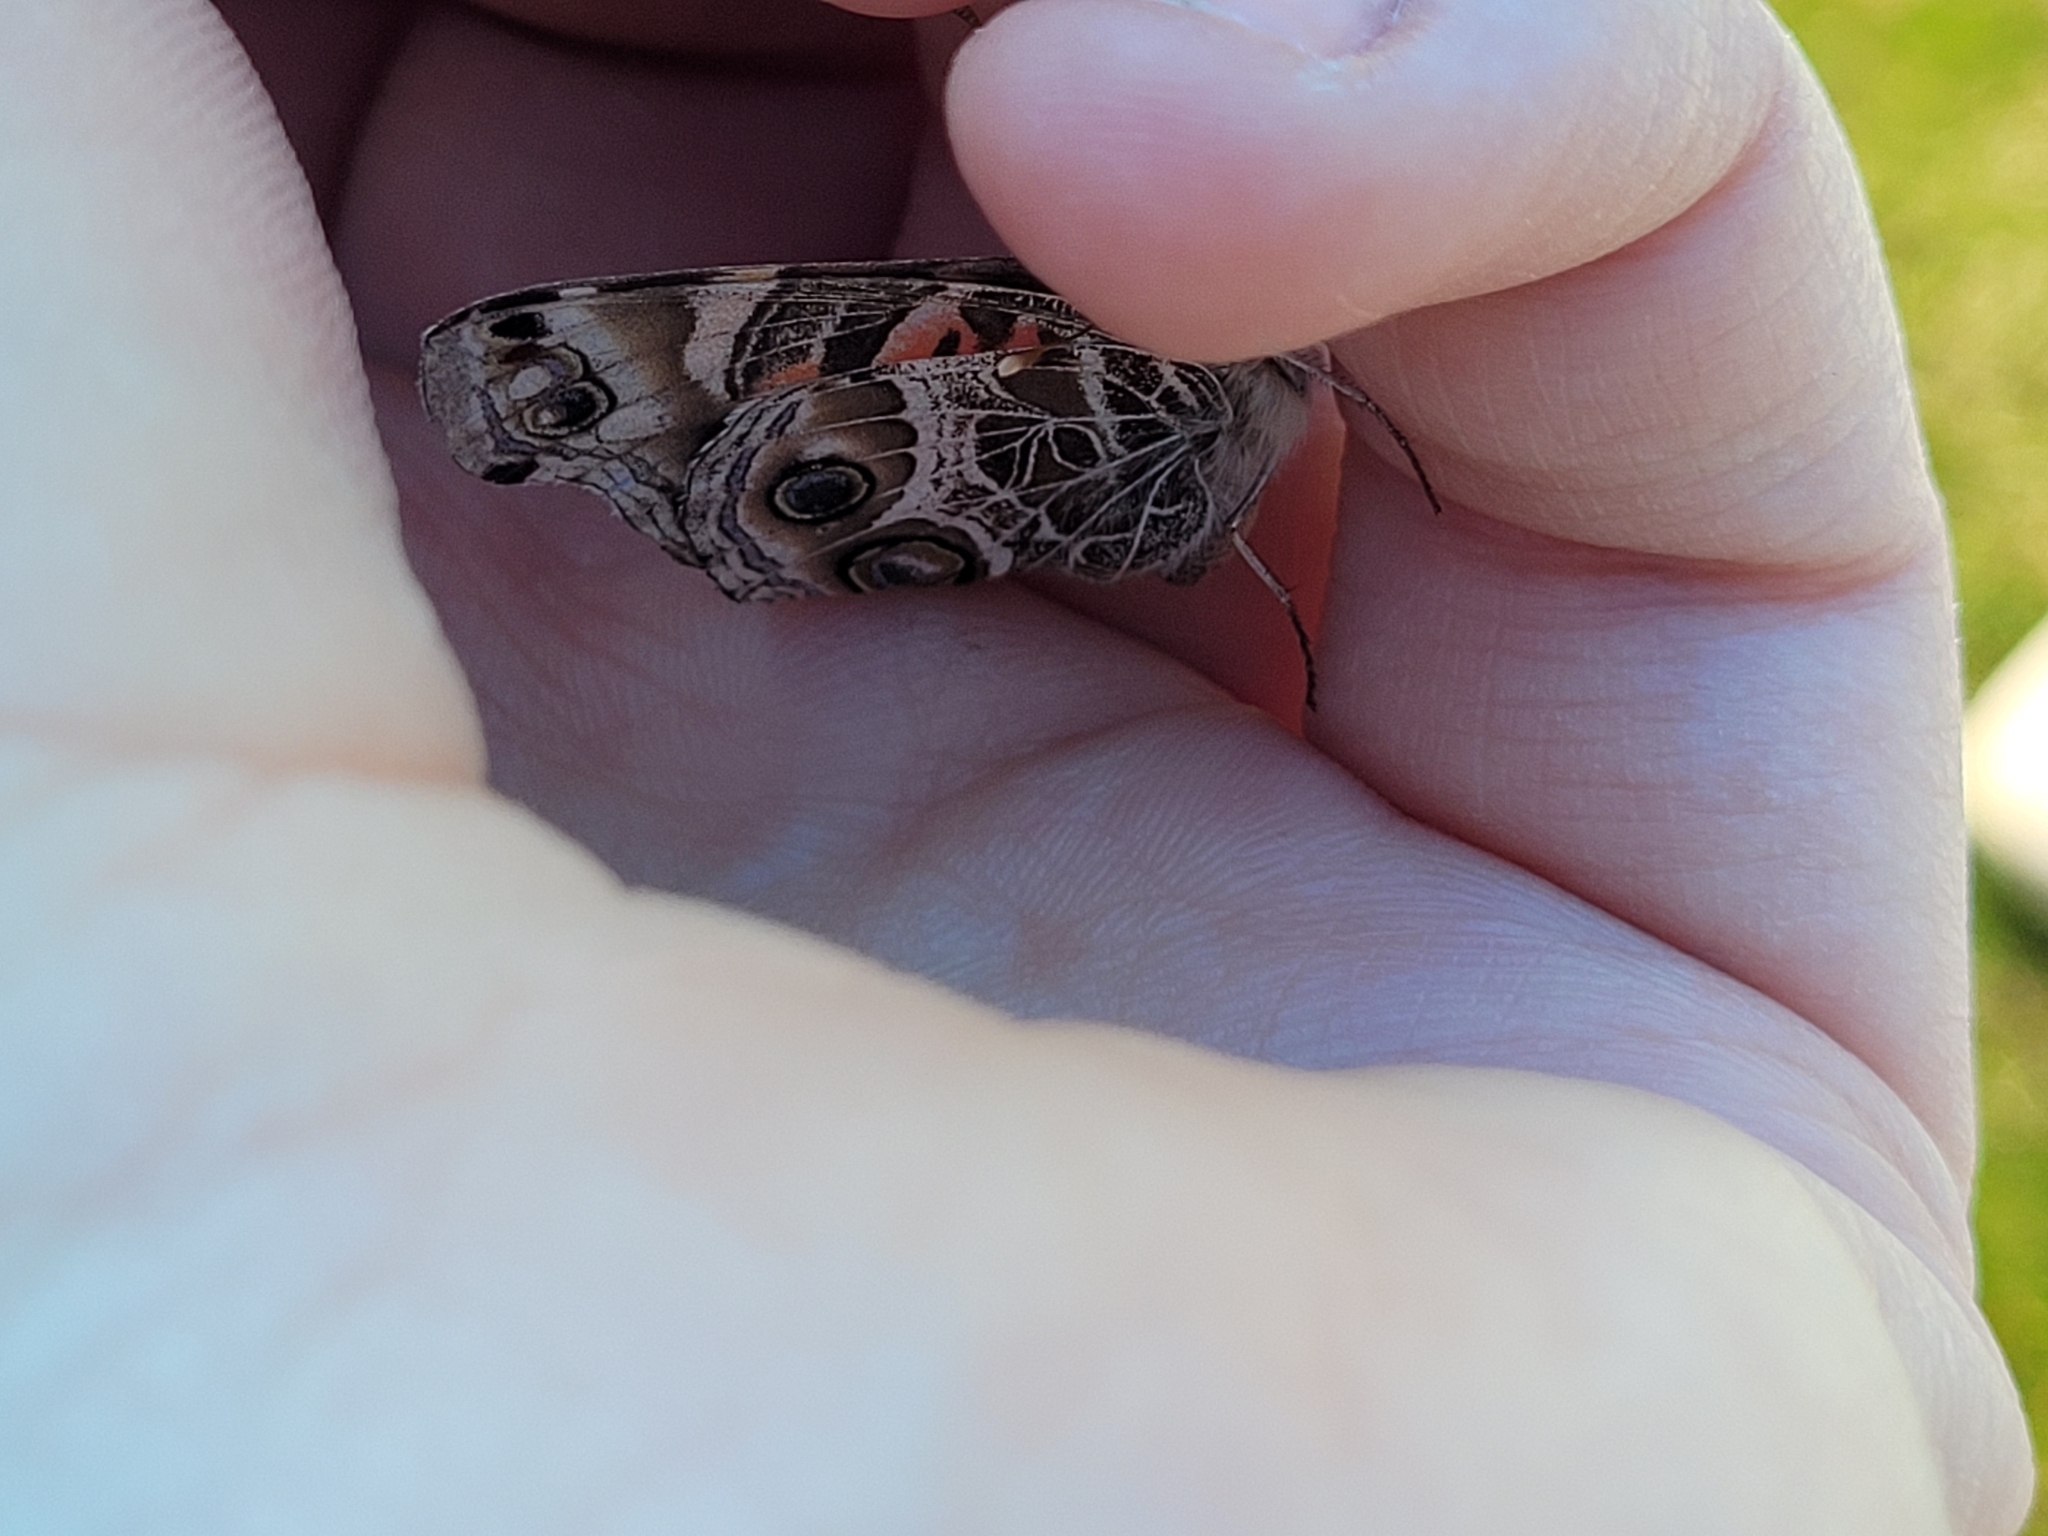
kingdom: Animalia
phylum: Arthropoda
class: Insecta
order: Lepidoptera
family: Nymphalidae
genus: Vanessa
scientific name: Vanessa virginiensis
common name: American lady
